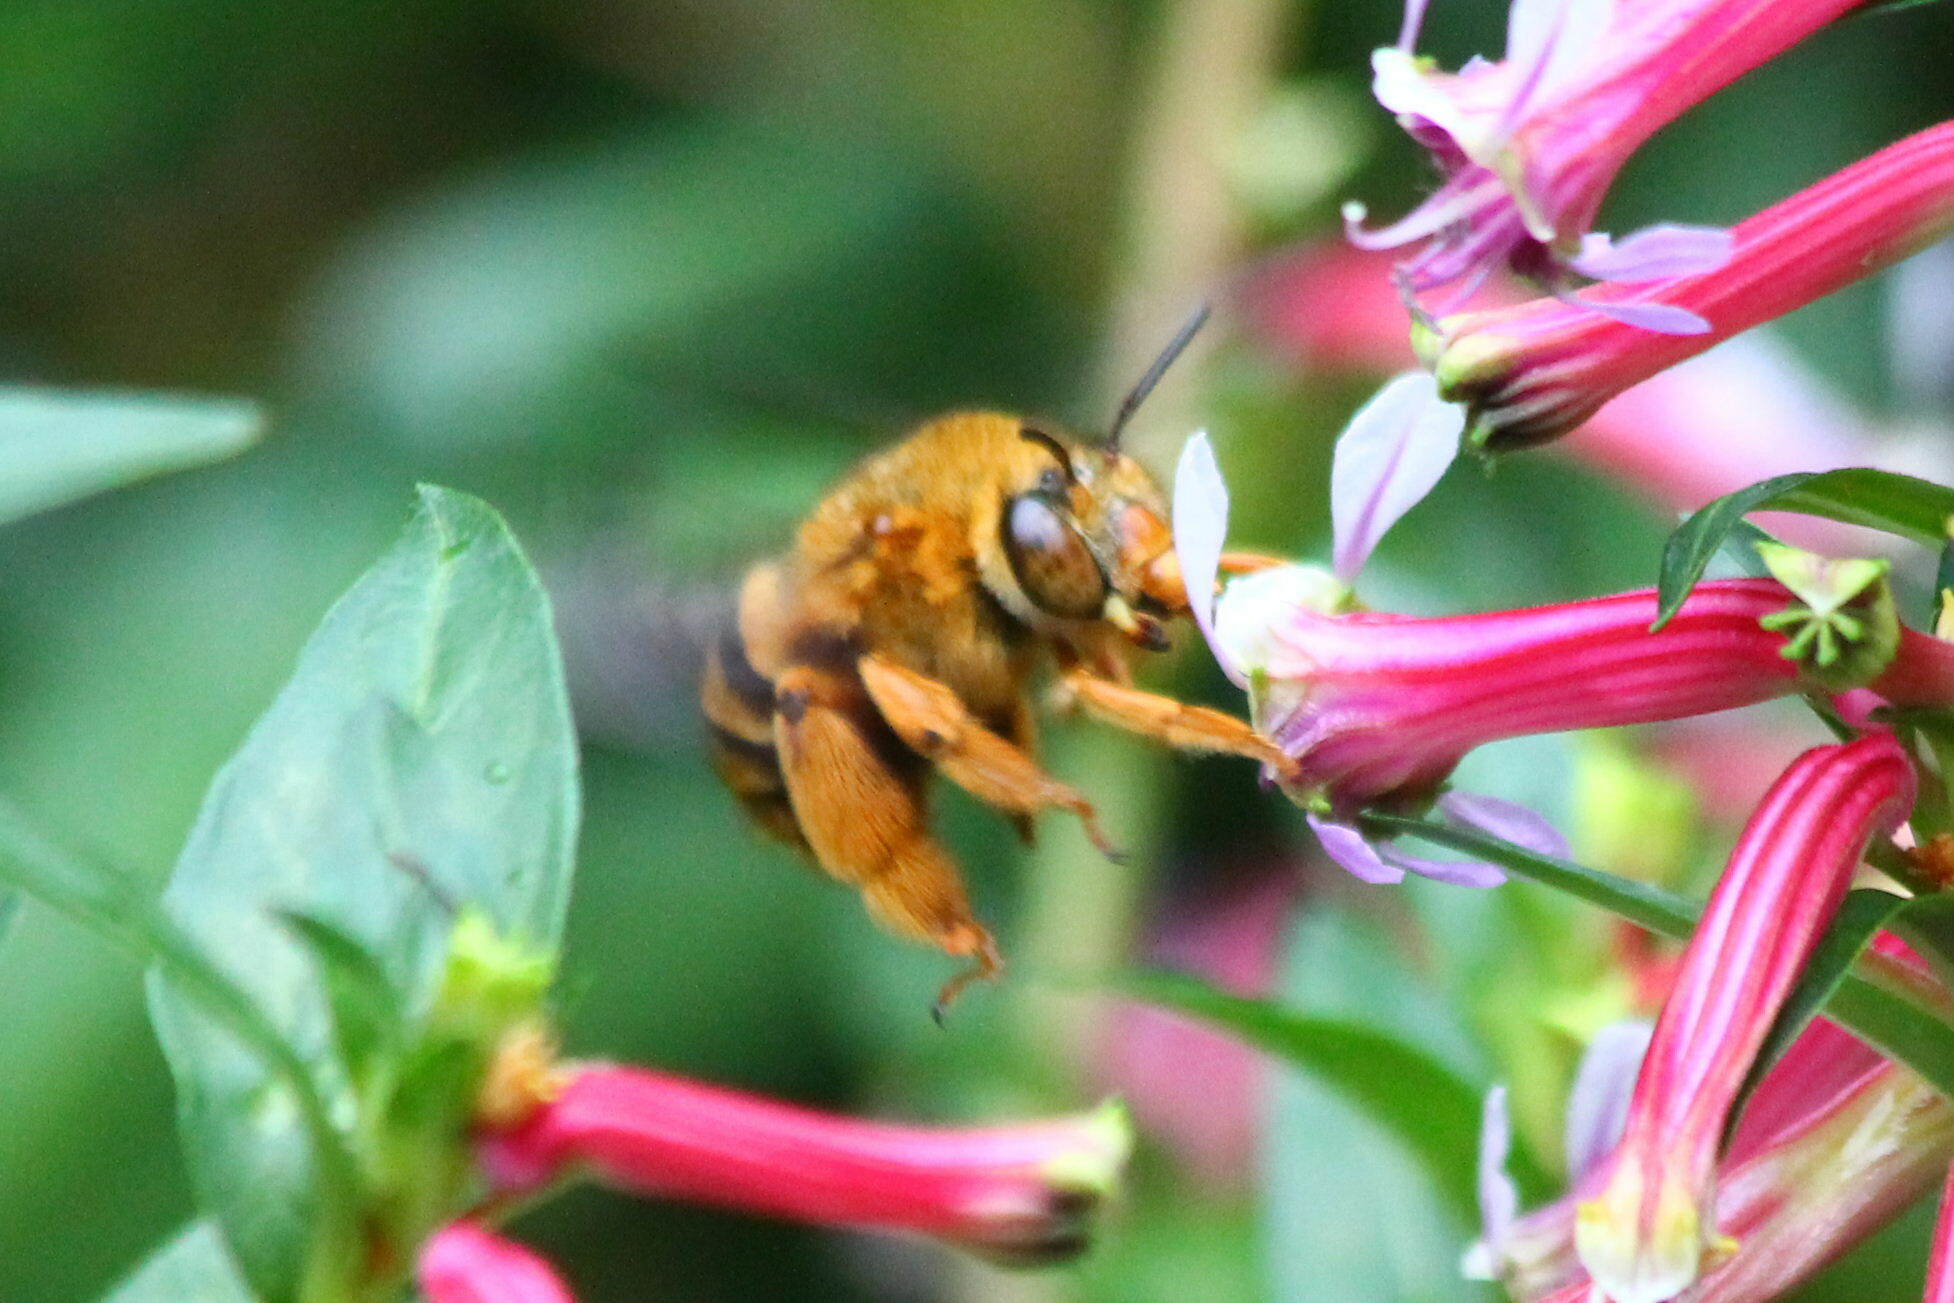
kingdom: Animalia
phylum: Arthropoda
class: Insecta
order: Hymenoptera
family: Apidae
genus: Amegilla
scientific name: Amegilla bombiformis
